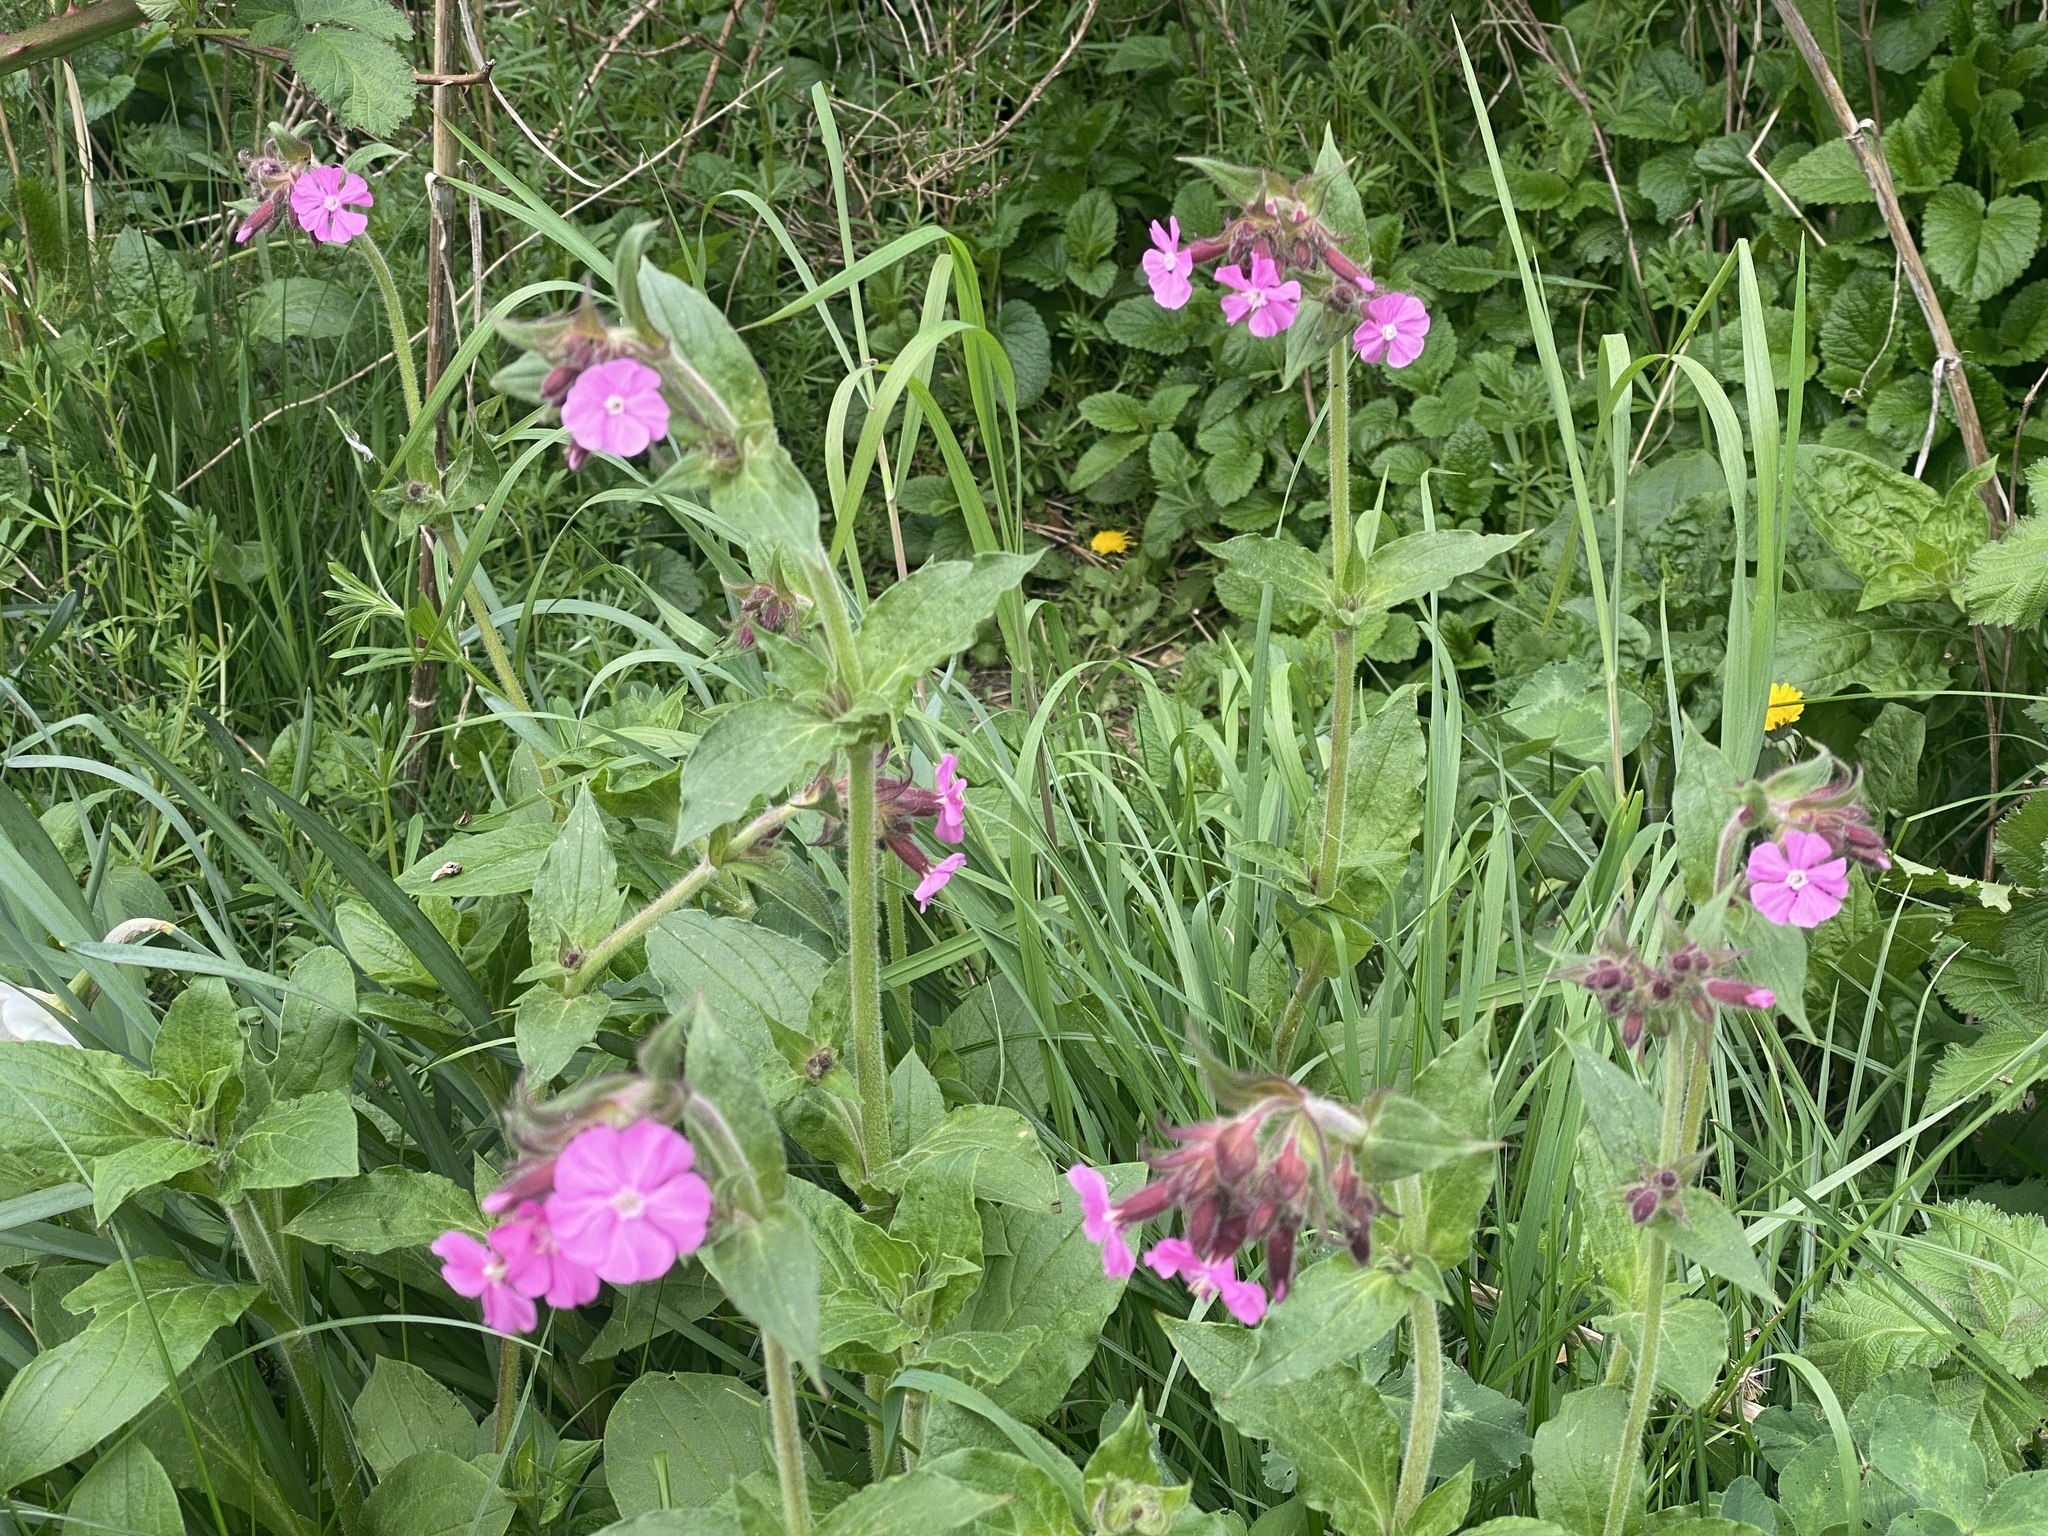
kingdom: Plantae
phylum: Tracheophyta
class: Magnoliopsida
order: Caryophyllales
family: Caryophyllaceae
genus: Silene
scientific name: Silene dioica
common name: Red campion
